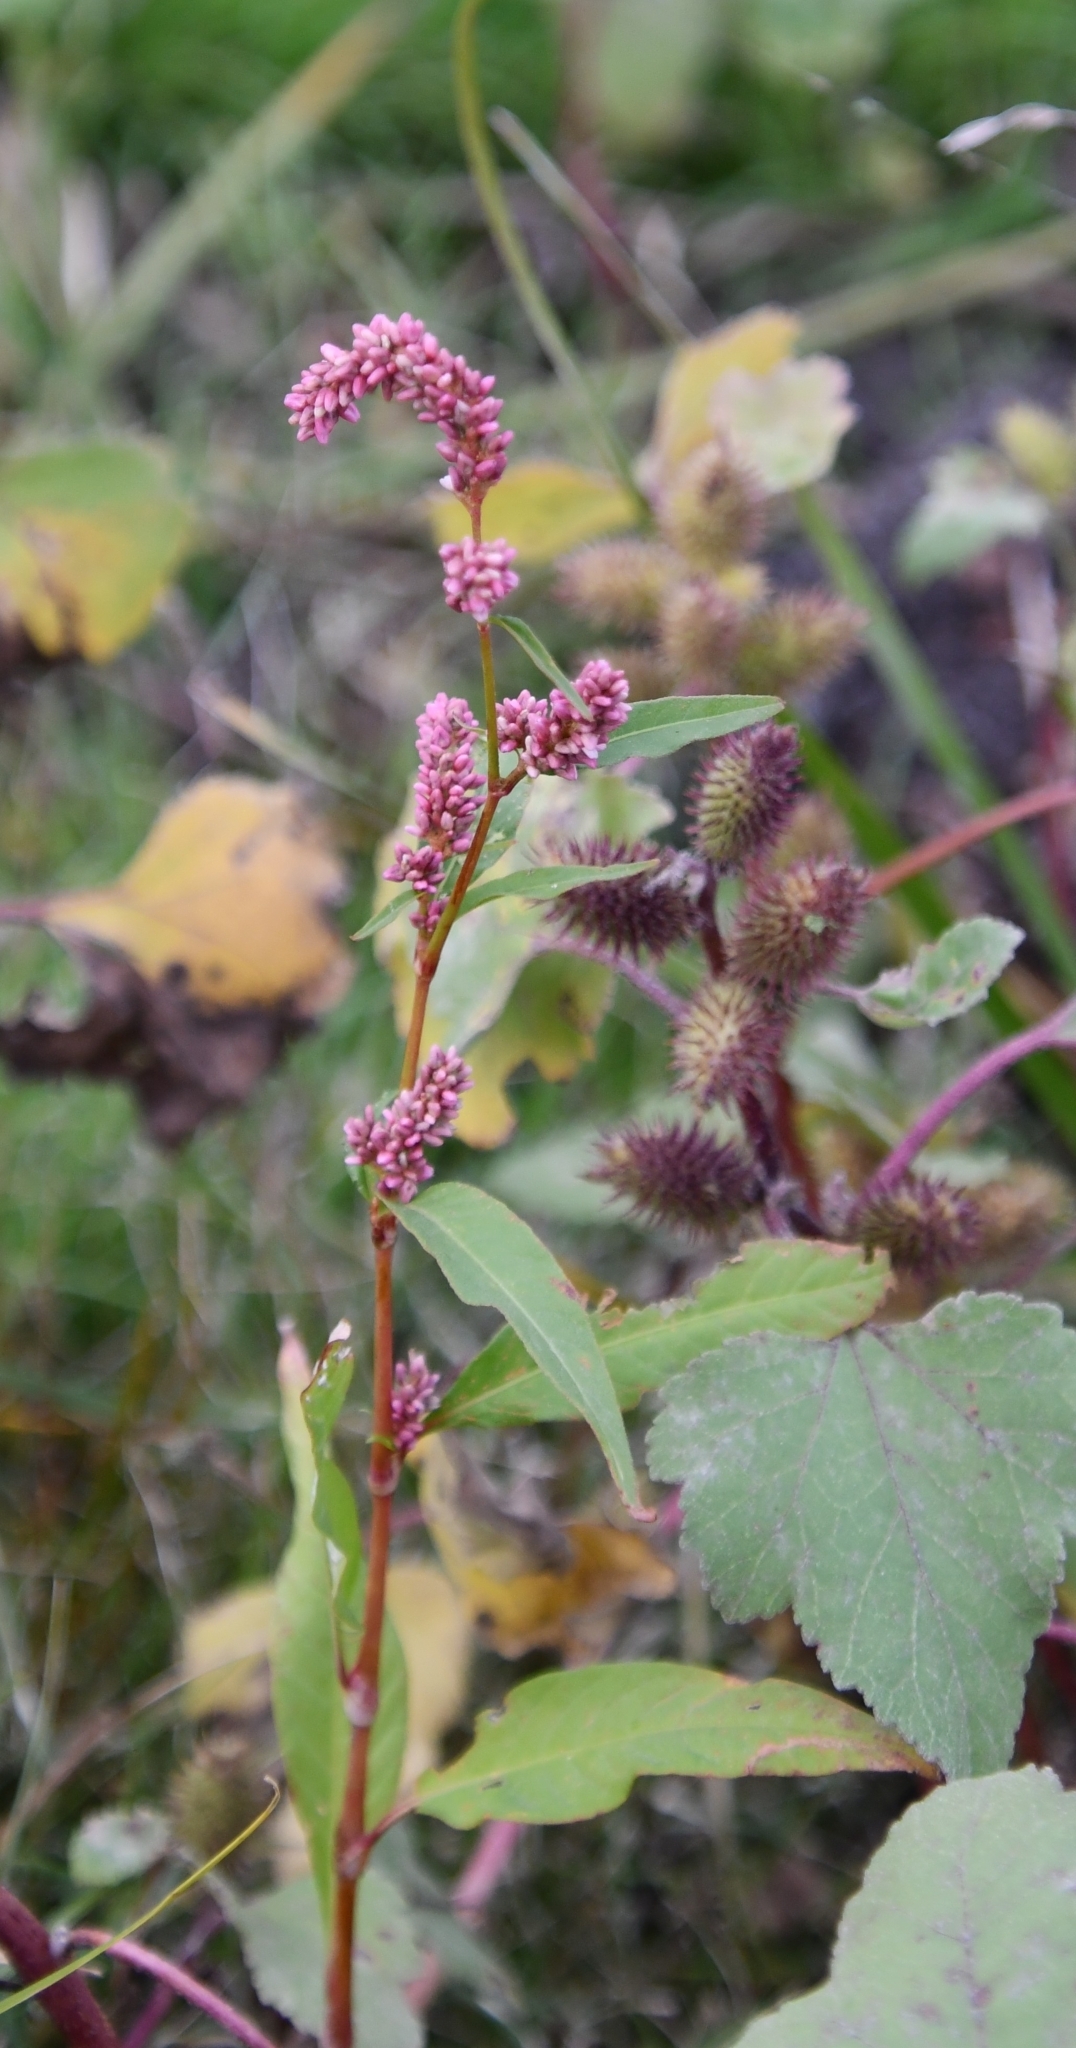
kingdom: Plantae
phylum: Tracheophyta
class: Magnoliopsida
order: Caryophyllales
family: Polygonaceae
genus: Persicaria
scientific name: Persicaria lapathifolia
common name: Curlytop knotweed
